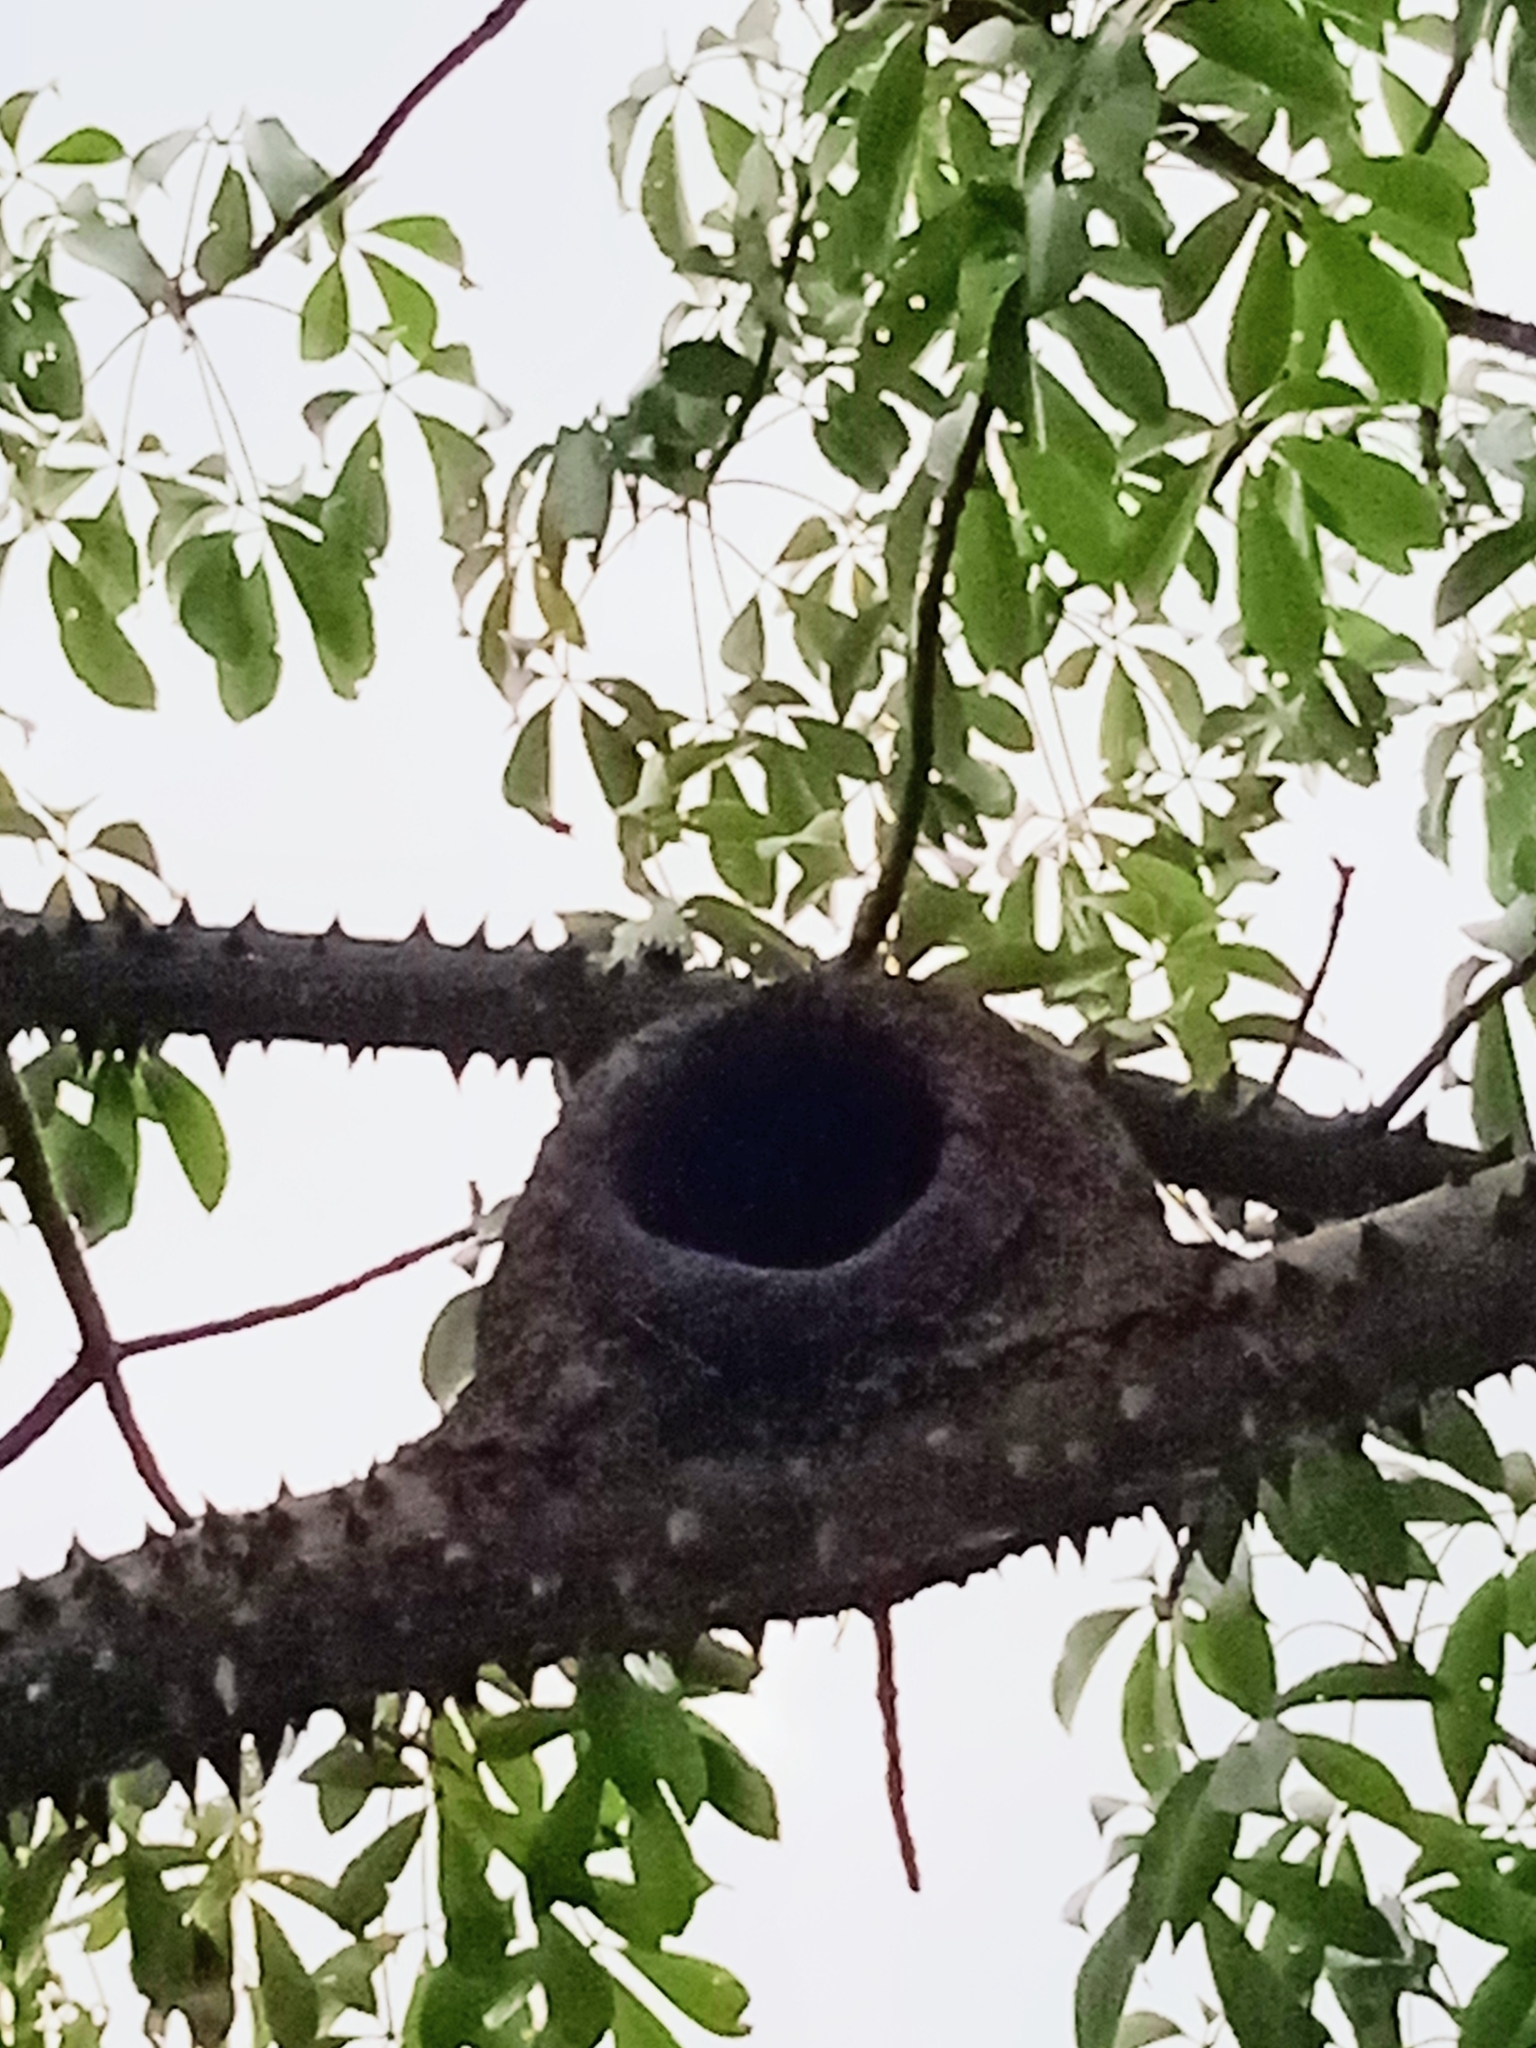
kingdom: Animalia
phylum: Chordata
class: Aves
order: Passeriformes
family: Furnariidae
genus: Furnarius
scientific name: Furnarius rufus
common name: Rufous hornero
